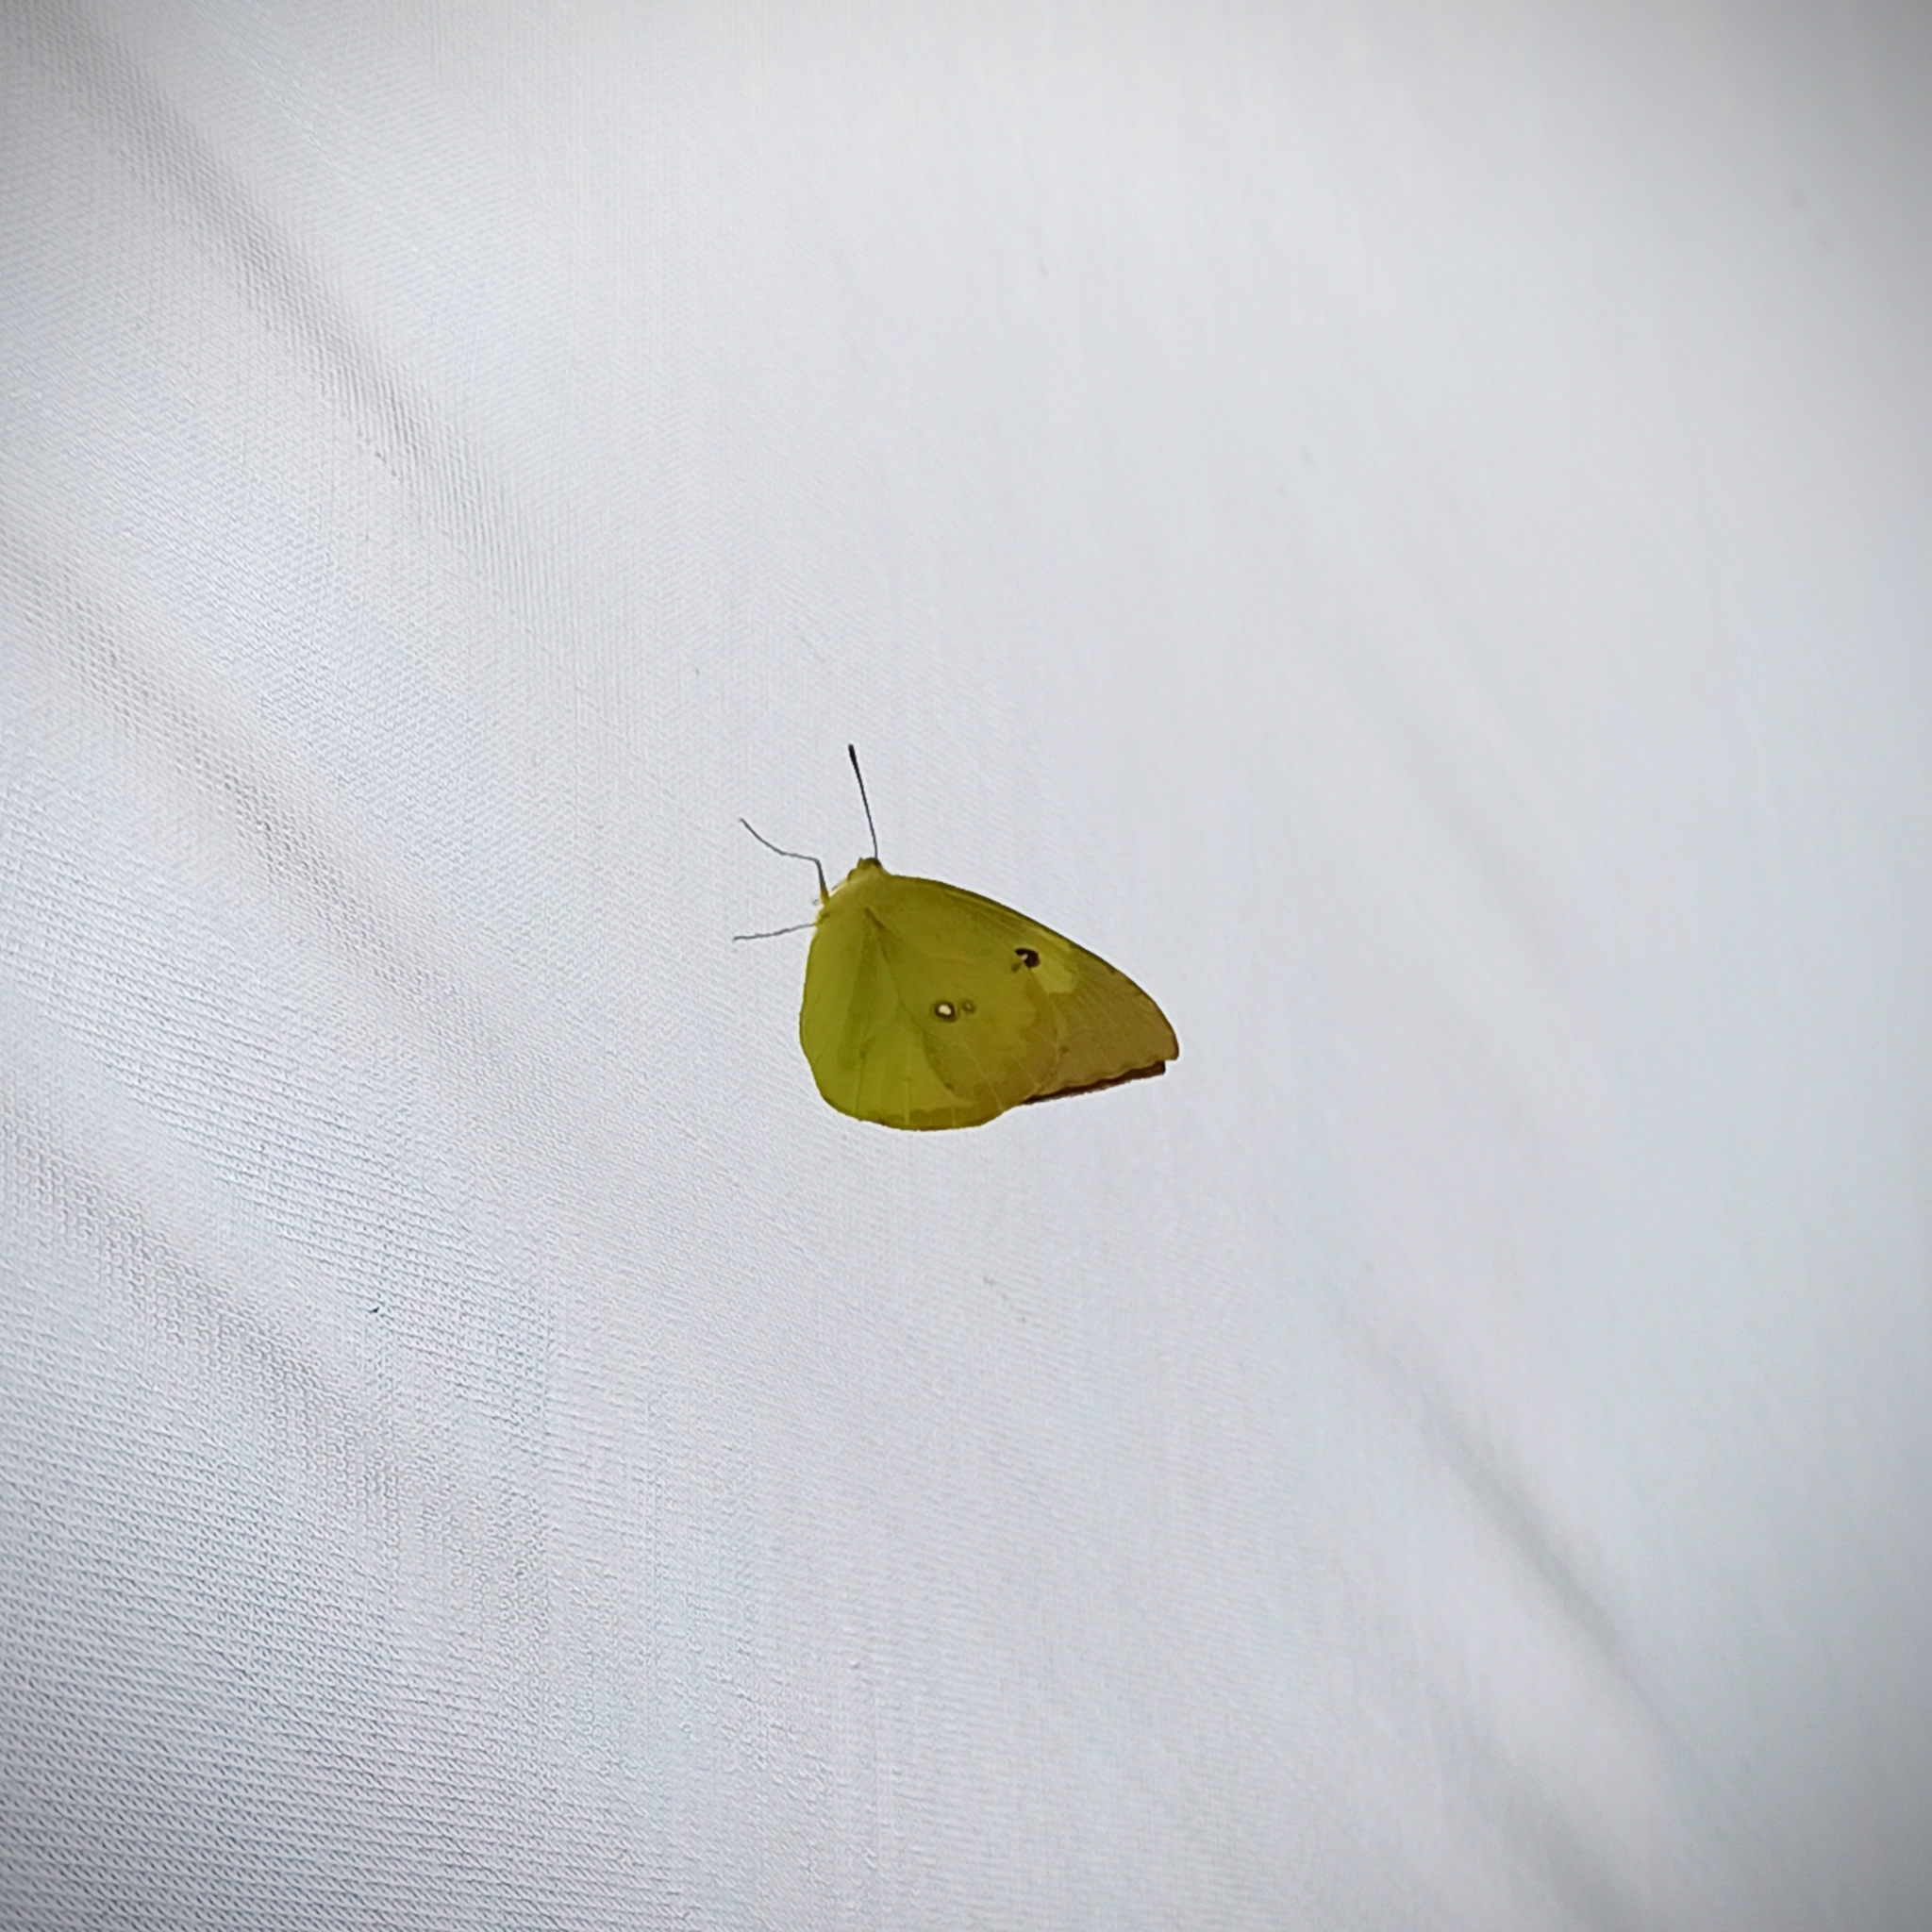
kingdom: Animalia
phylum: Arthropoda
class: Insecta
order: Lepidoptera
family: Pieridae
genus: Zerene
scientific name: Zerene cesonia
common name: Southern dogface
